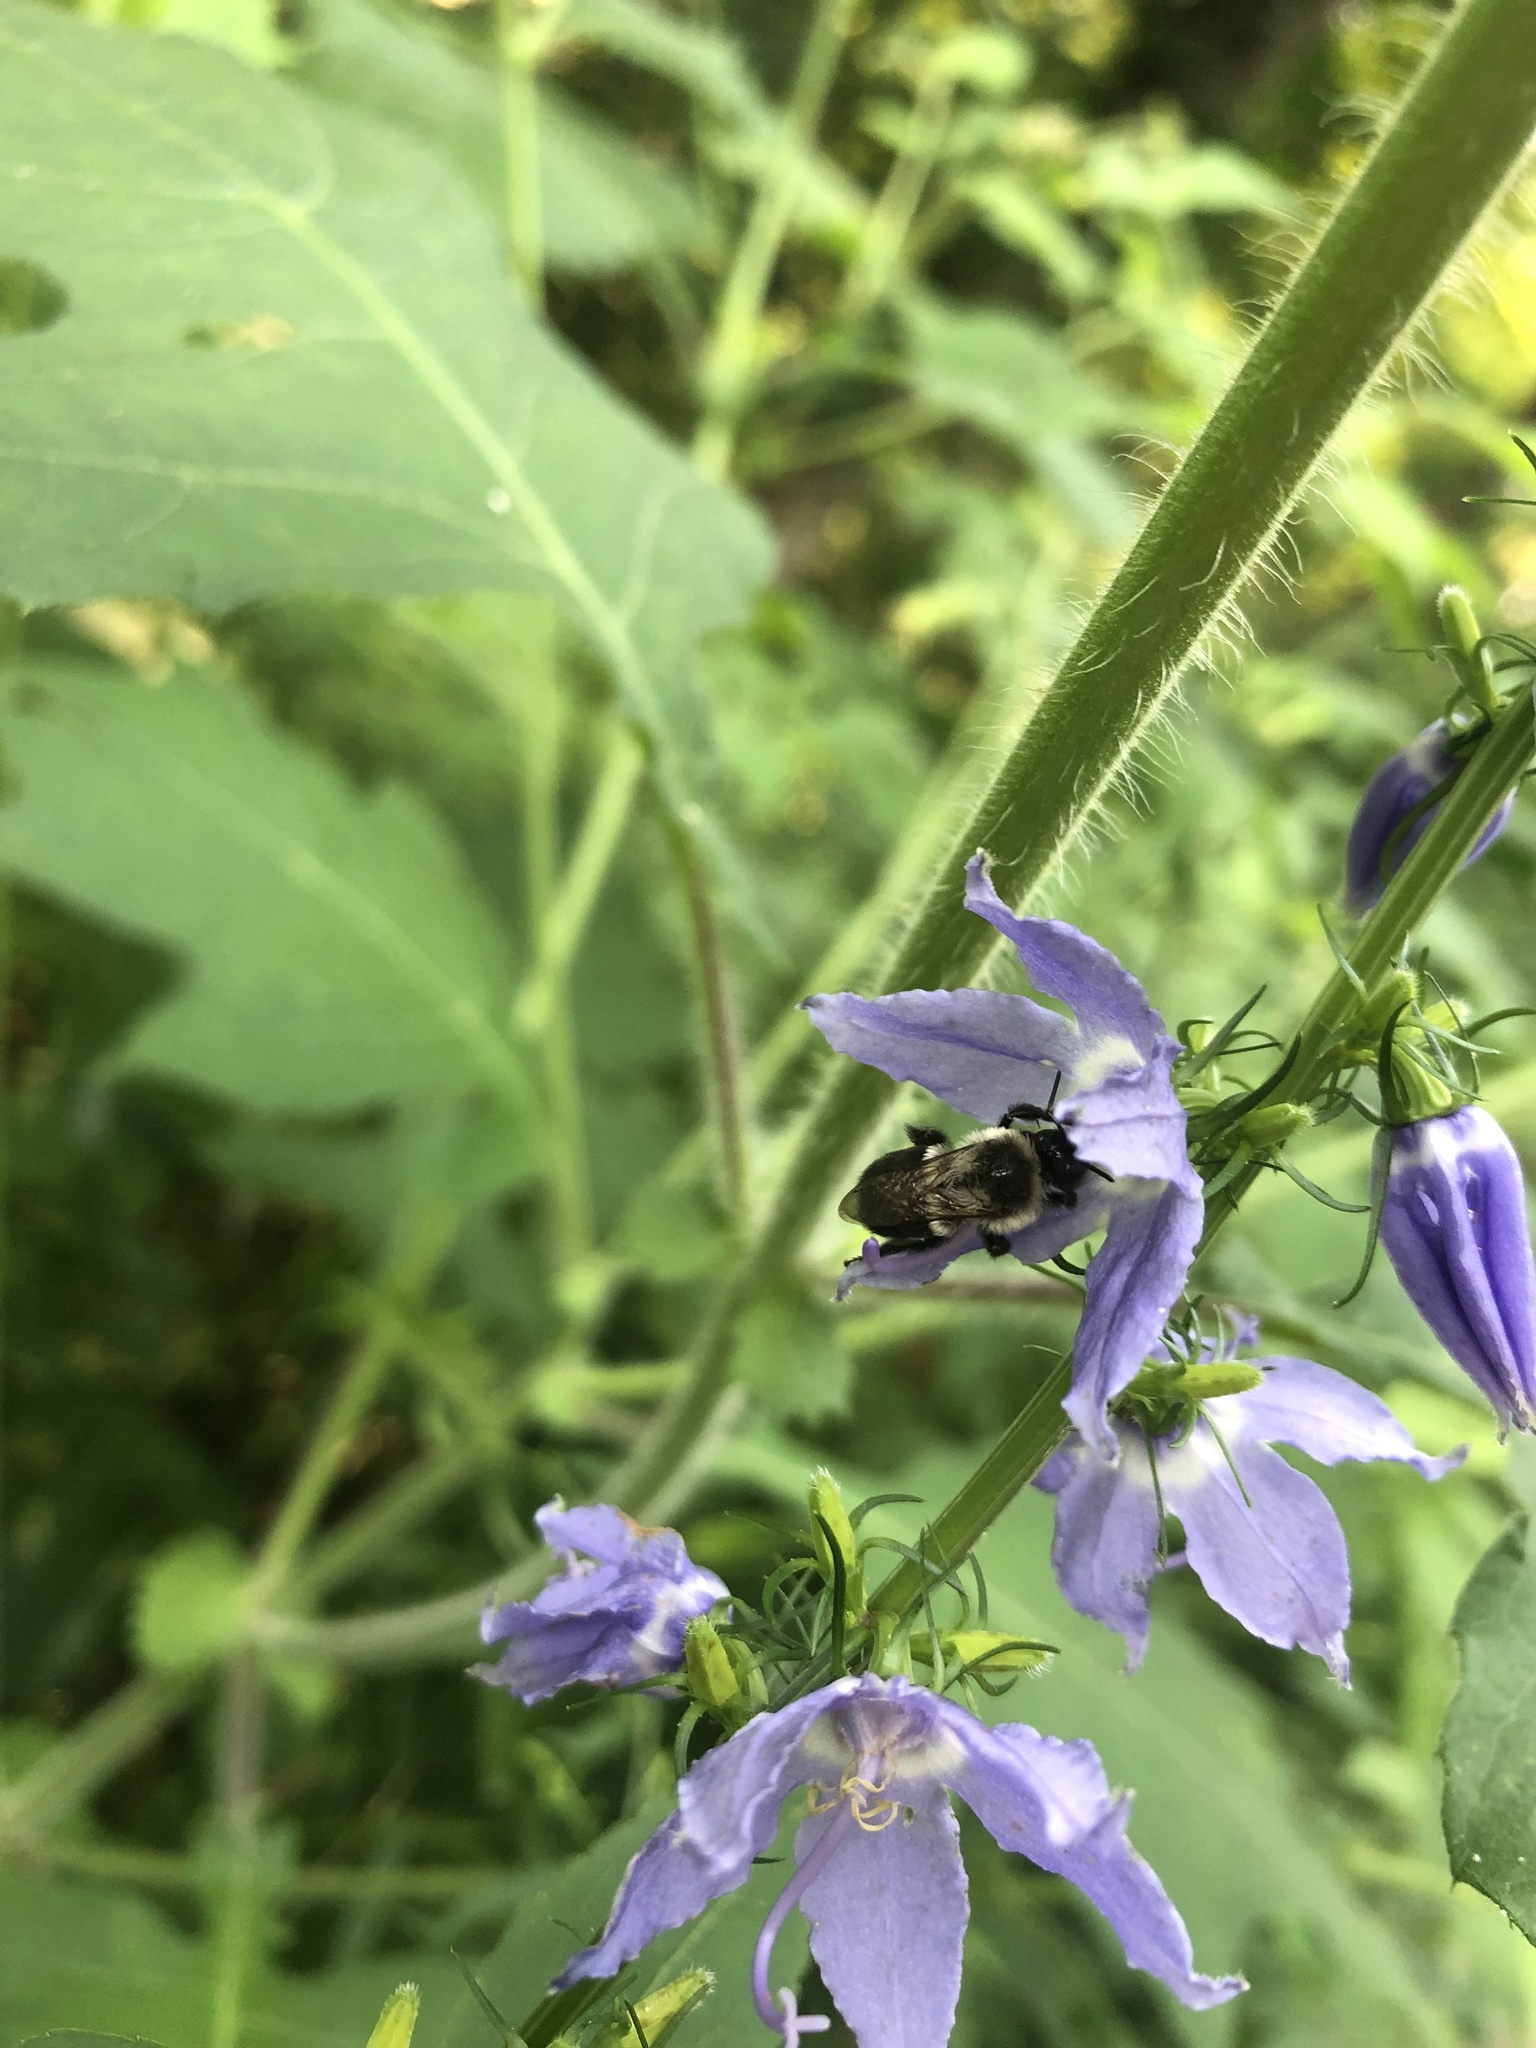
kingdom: Animalia
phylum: Arthropoda
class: Insecta
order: Hymenoptera
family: Apidae
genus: Bombus
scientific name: Bombus impatiens
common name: Common eastern bumble bee
